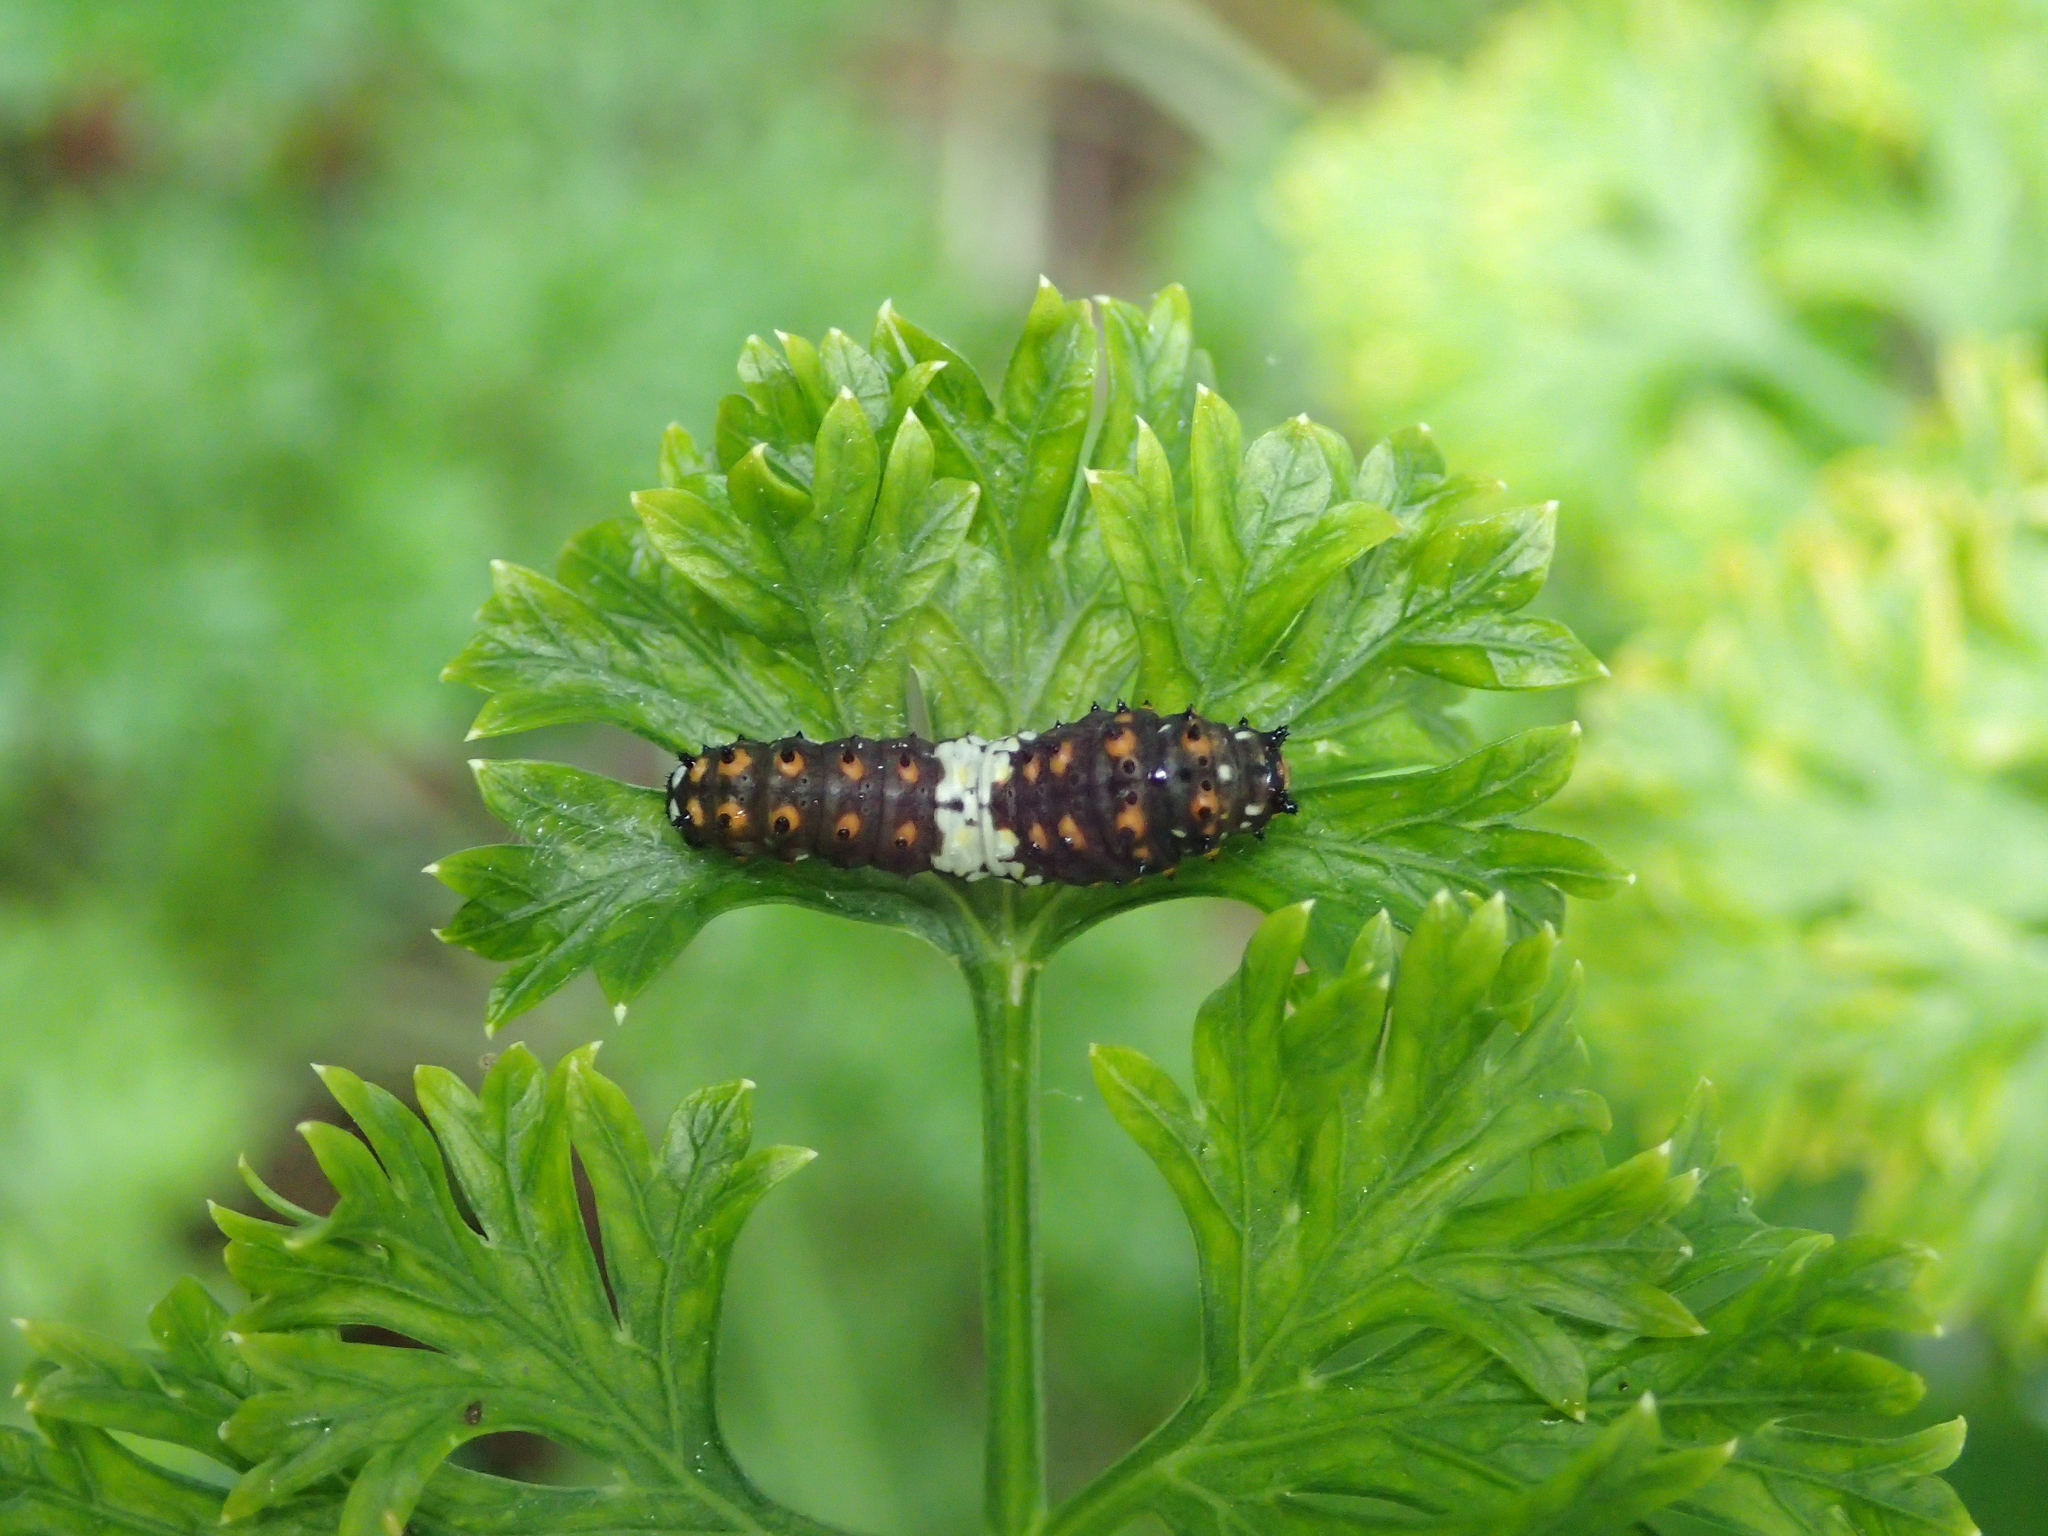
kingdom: Animalia
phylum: Arthropoda
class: Insecta
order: Lepidoptera
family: Papilionidae
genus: Papilio
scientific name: Papilio polyxenes
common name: Black swallowtail
